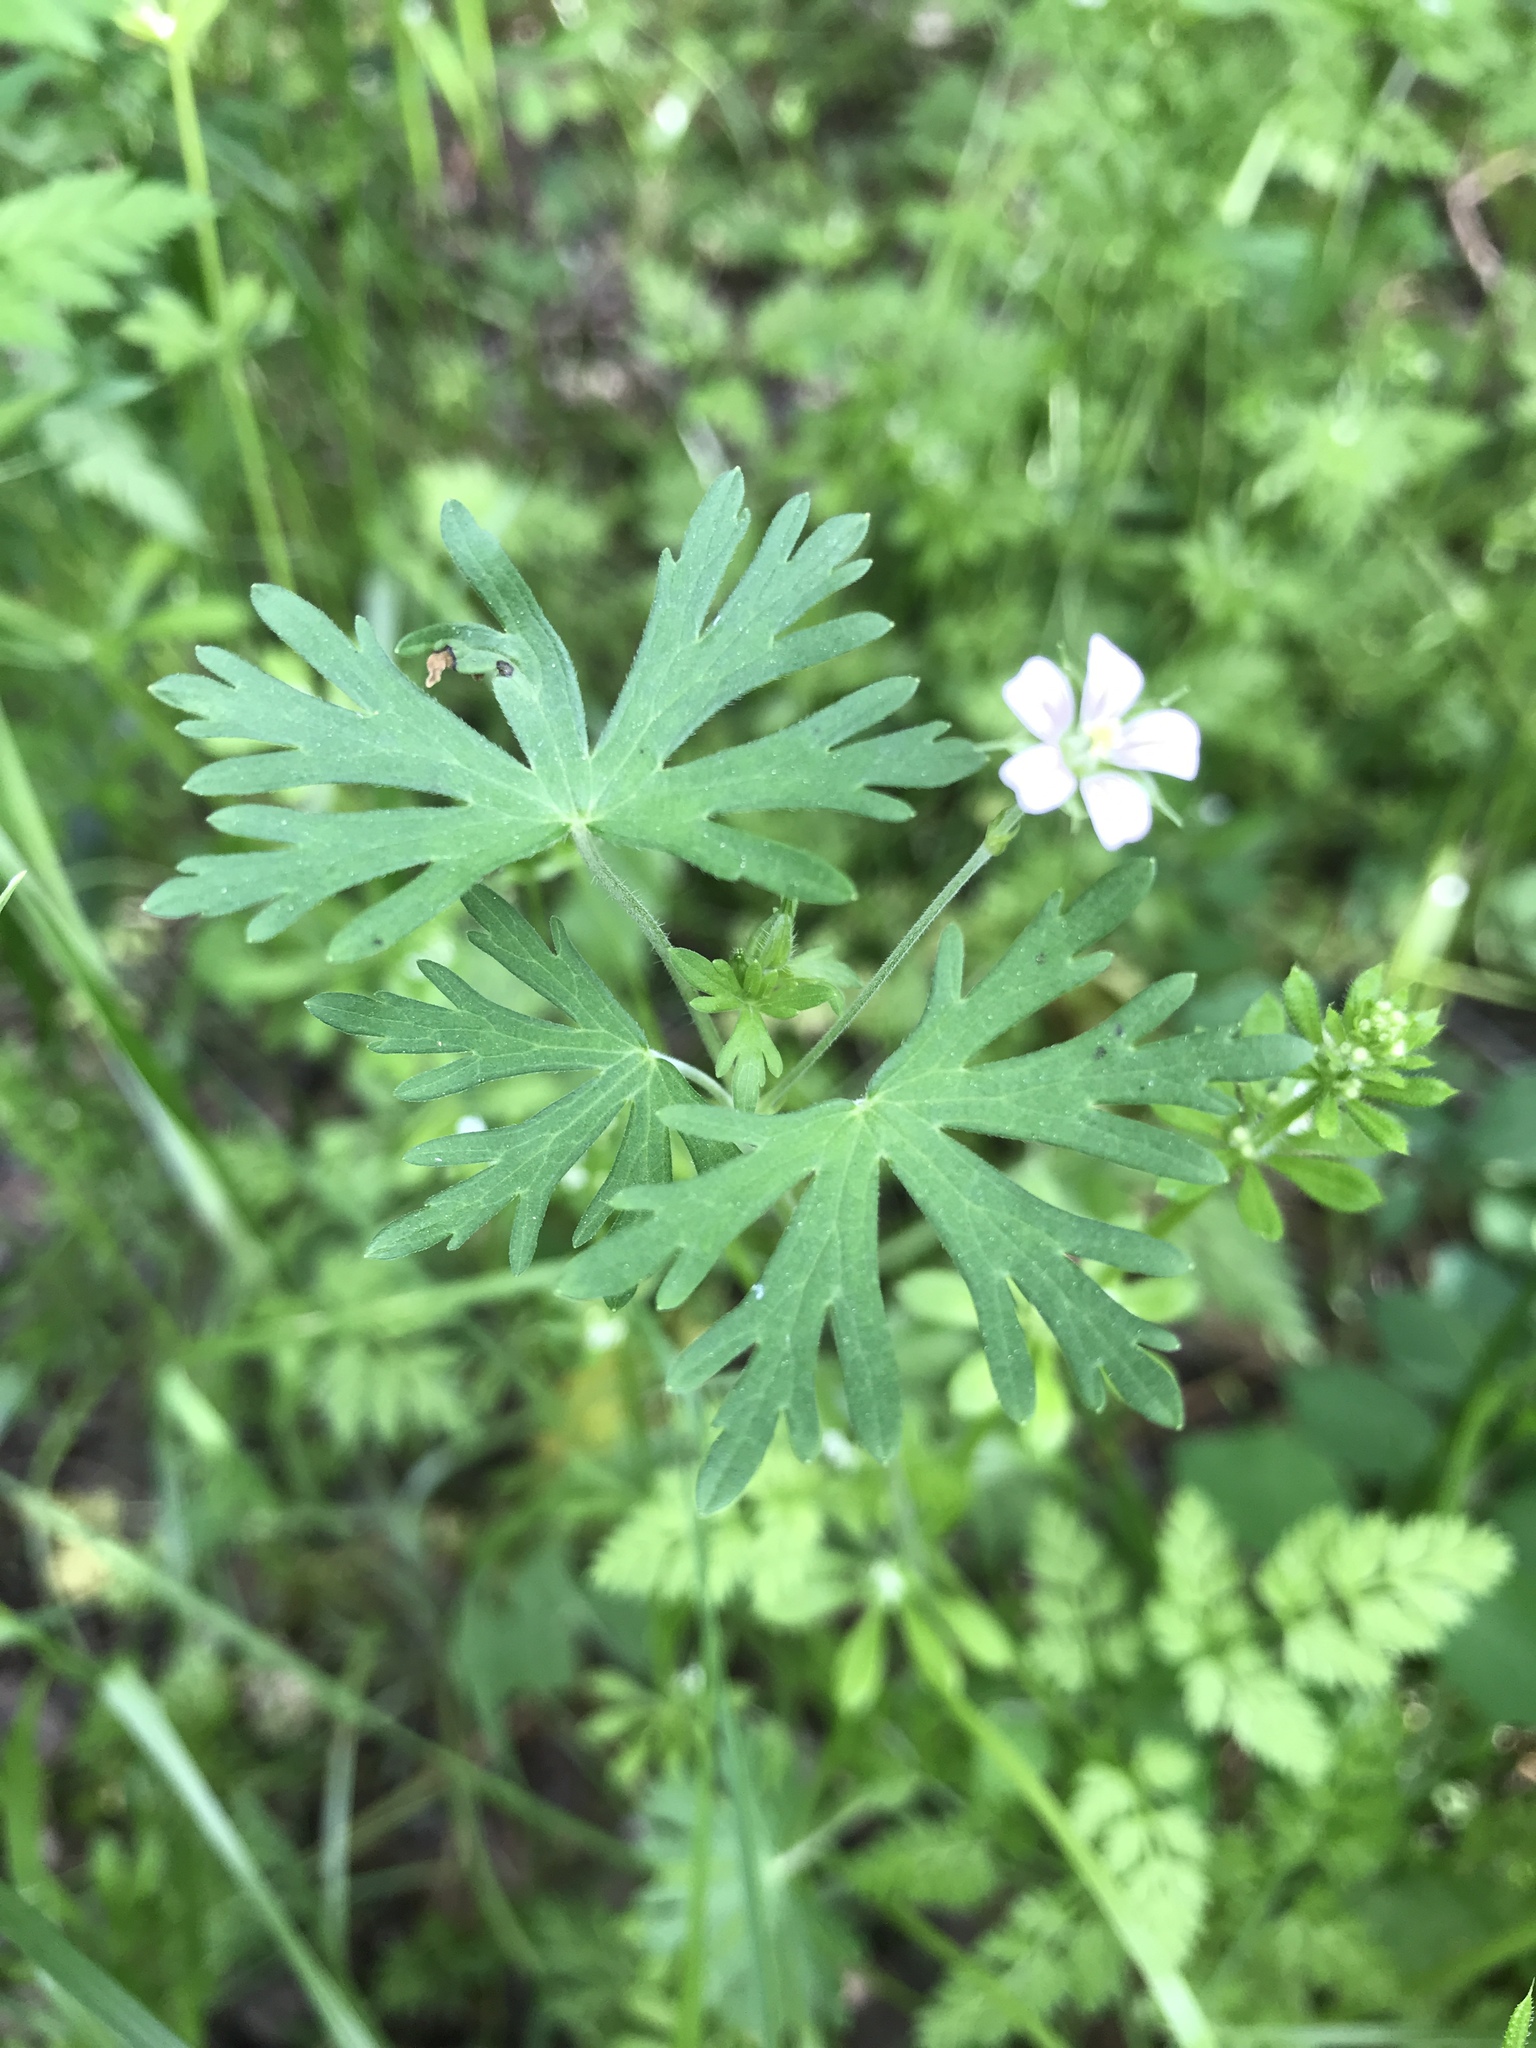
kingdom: Plantae
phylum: Tracheophyta
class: Magnoliopsida
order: Geraniales
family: Geraniaceae
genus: Geranium
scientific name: Geranium carolinianum
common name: Carolina crane's-bill
